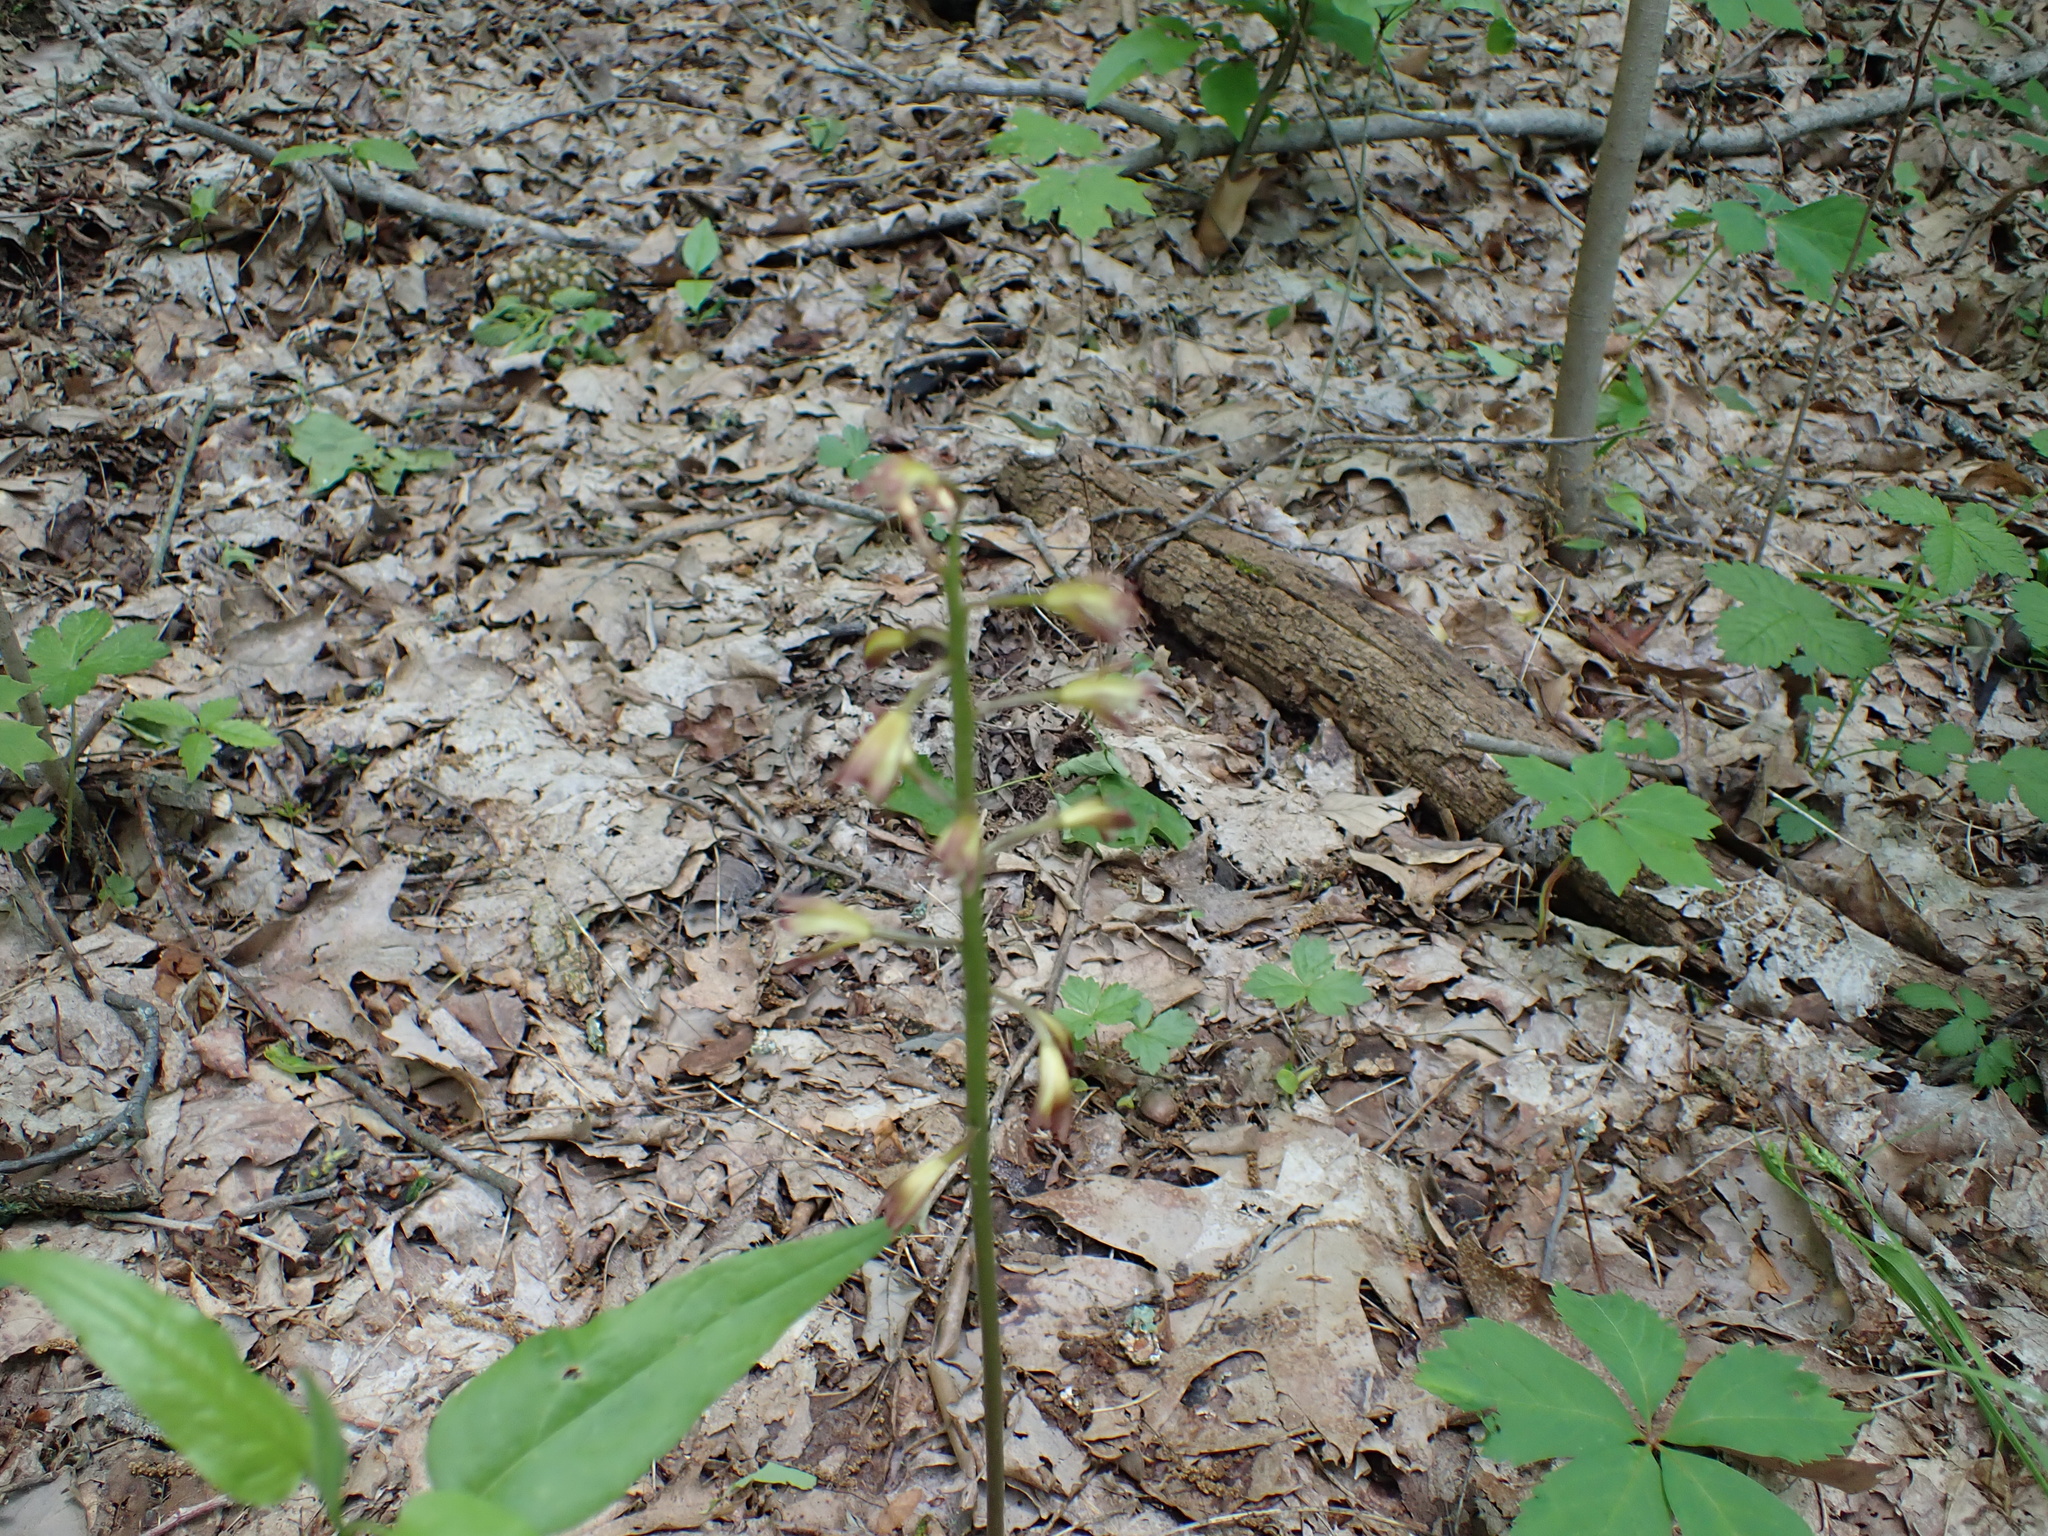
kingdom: Plantae
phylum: Tracheophyta
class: Liliopsida
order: Asparagales
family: Orchidaceae
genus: Aplectrum
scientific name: Aplectrum hyemale
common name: Adam-and-eve
